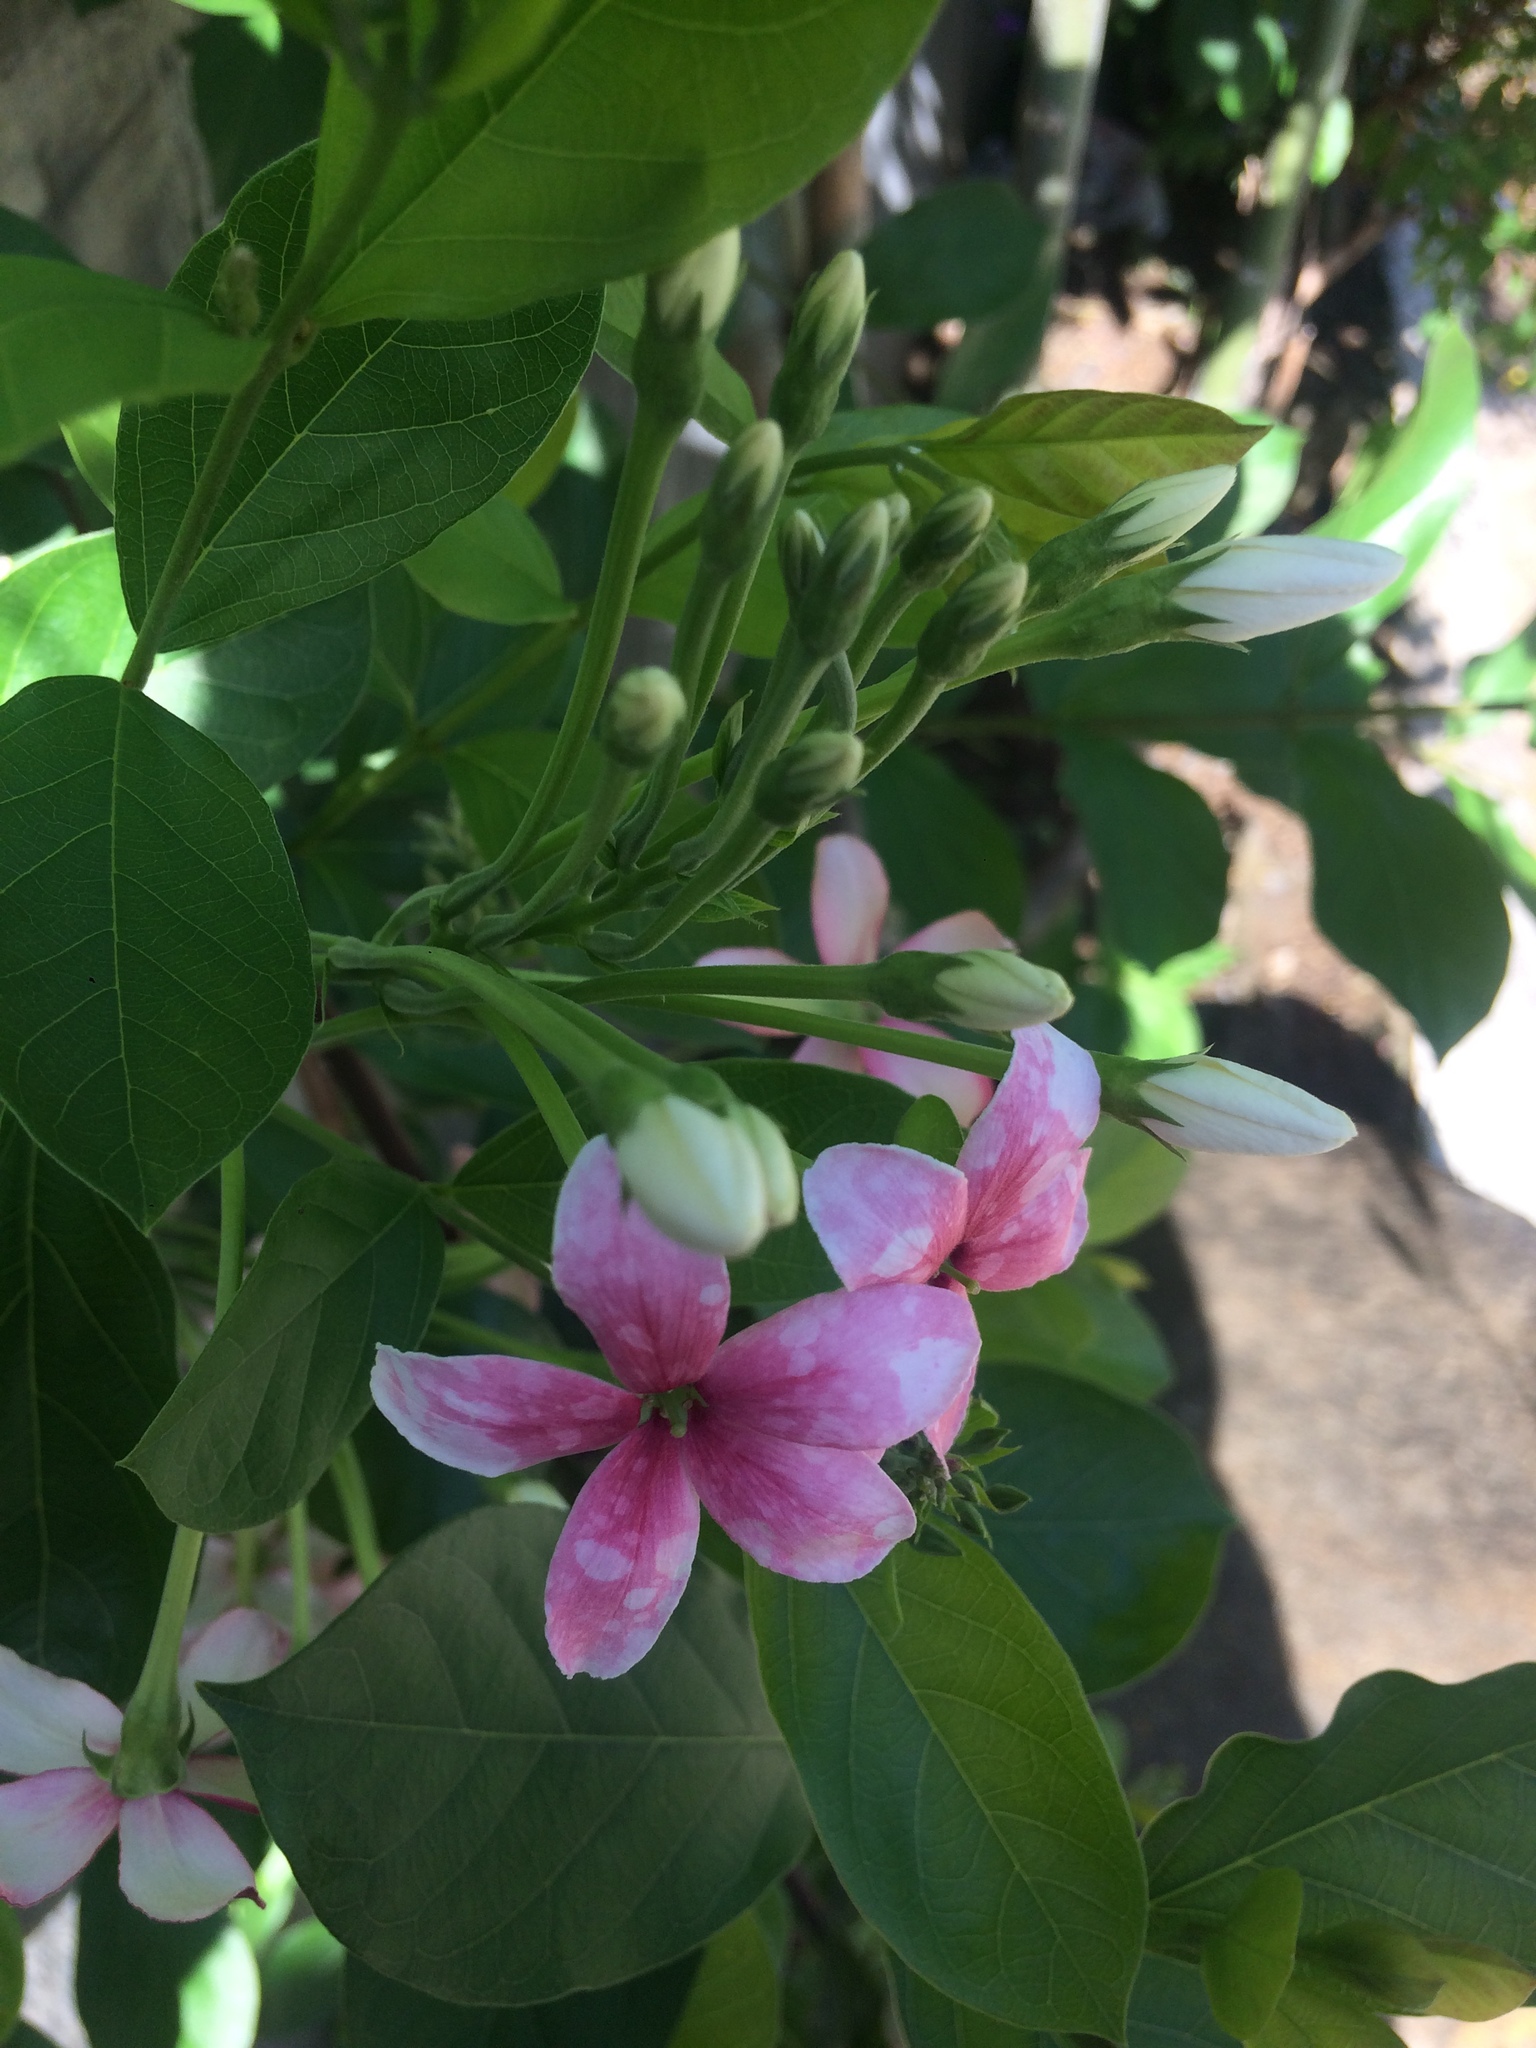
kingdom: Plantae
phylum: Tracheophyta
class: Magnoliopsida
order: Myrtales
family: Combretaceae
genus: Combretum
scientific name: Combretum indicum
